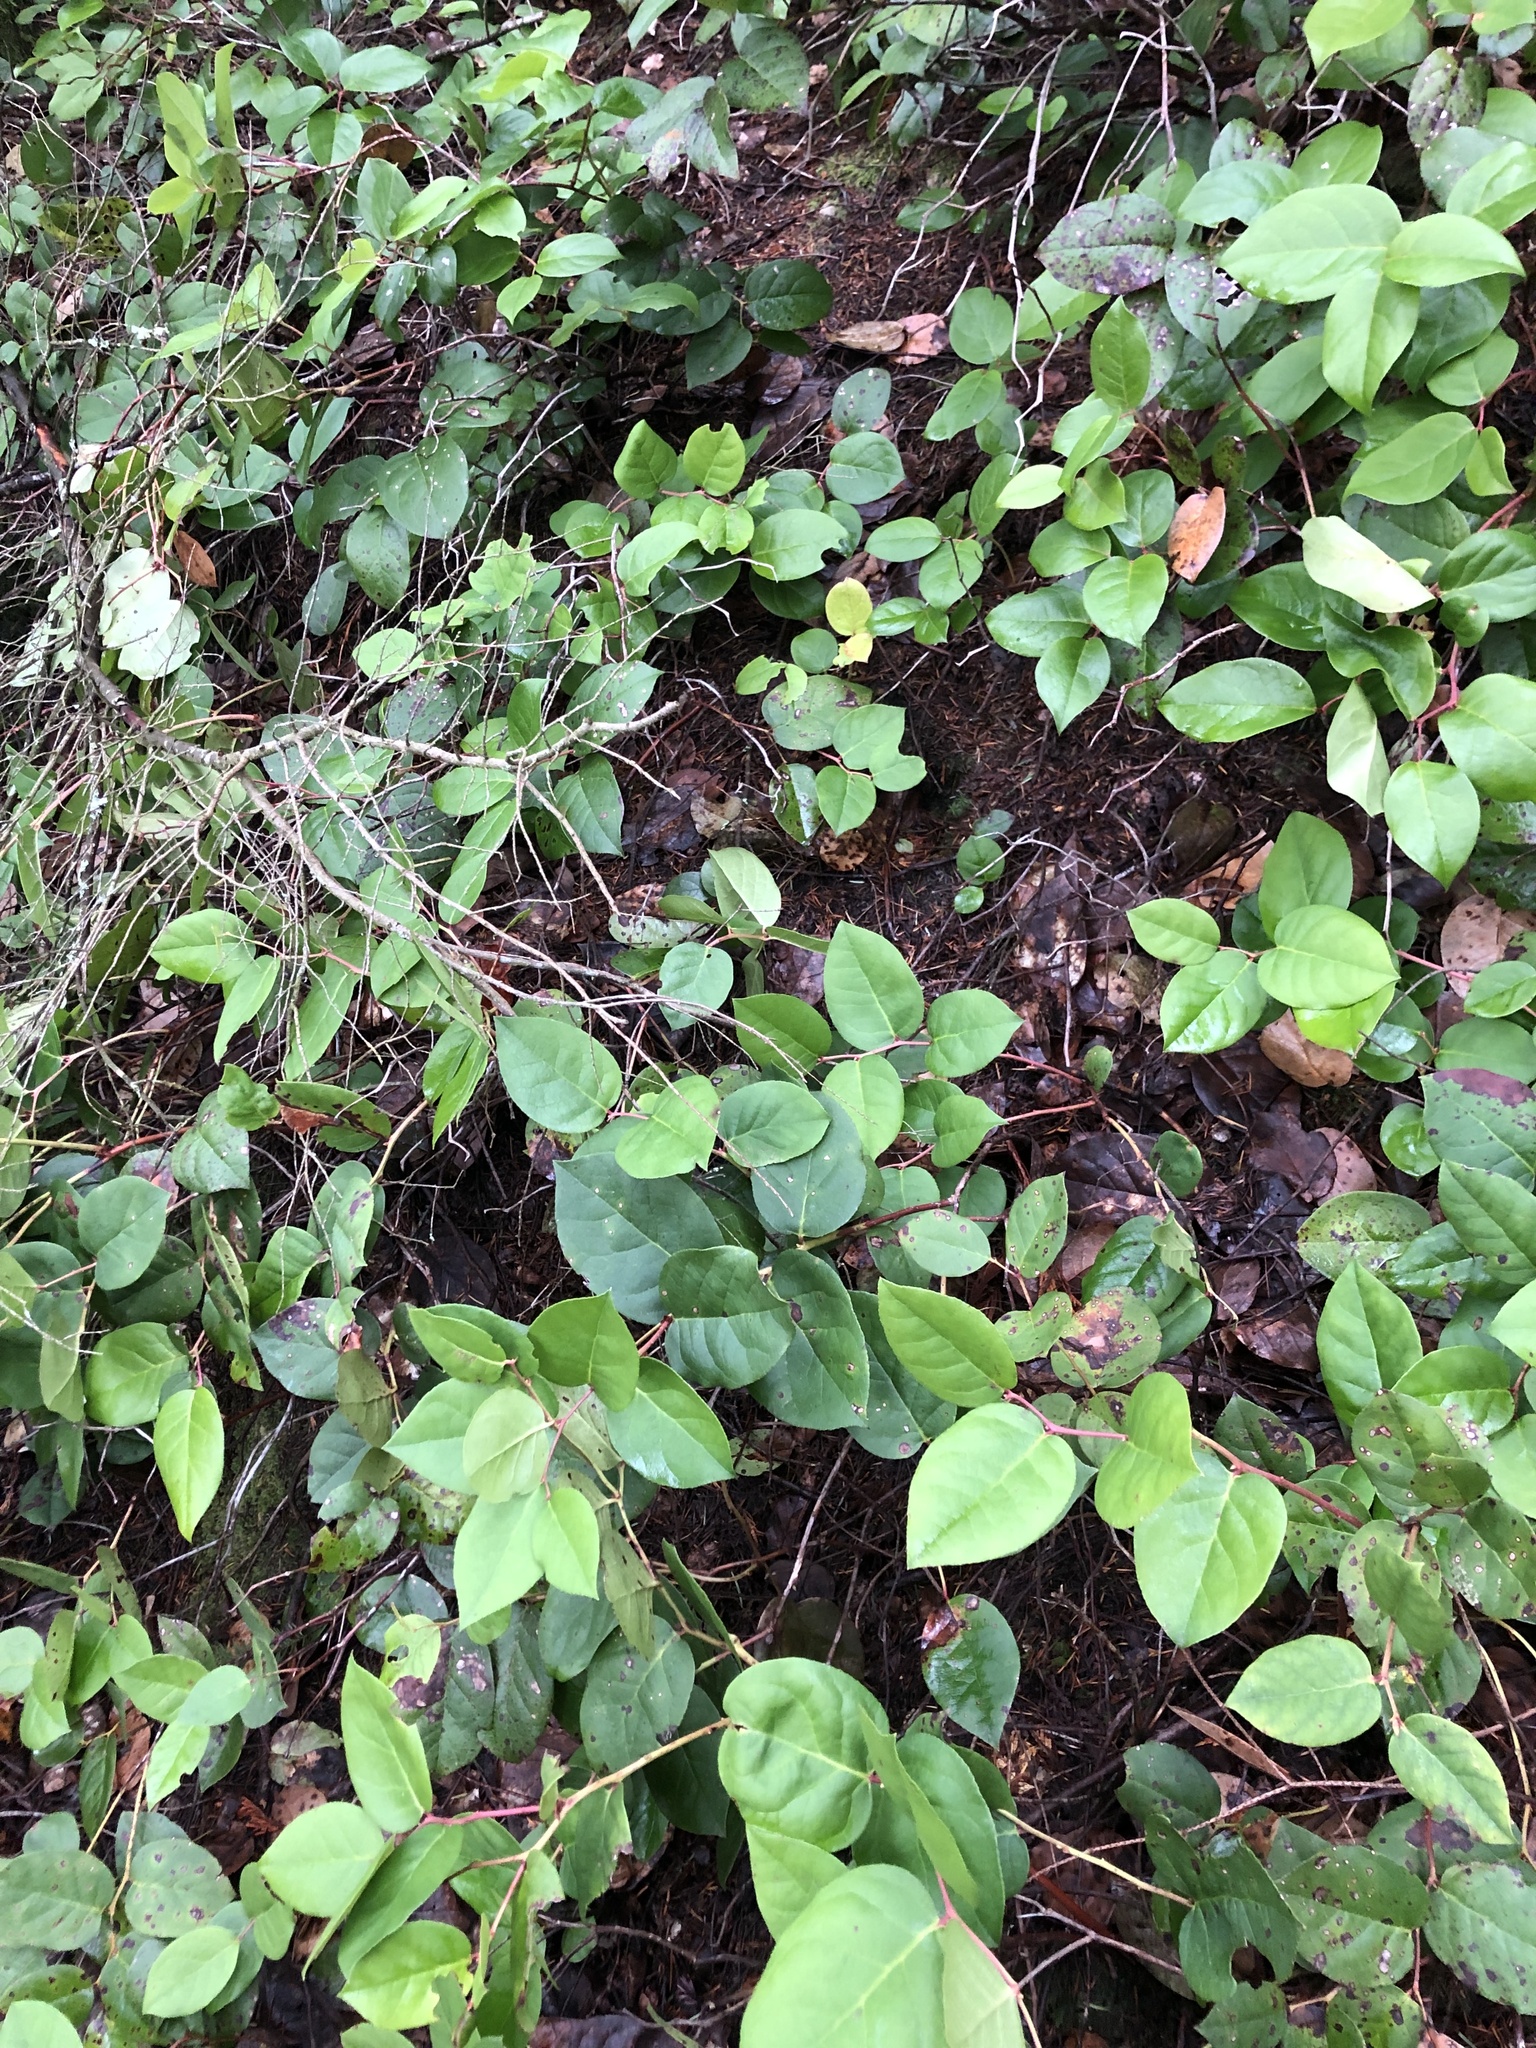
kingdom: Plantae
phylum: Tracheophyta
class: Magnoliopsida
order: Ericales
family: Ericaceae
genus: Gaultheria
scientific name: Gaultheria shallon
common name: Shallon
